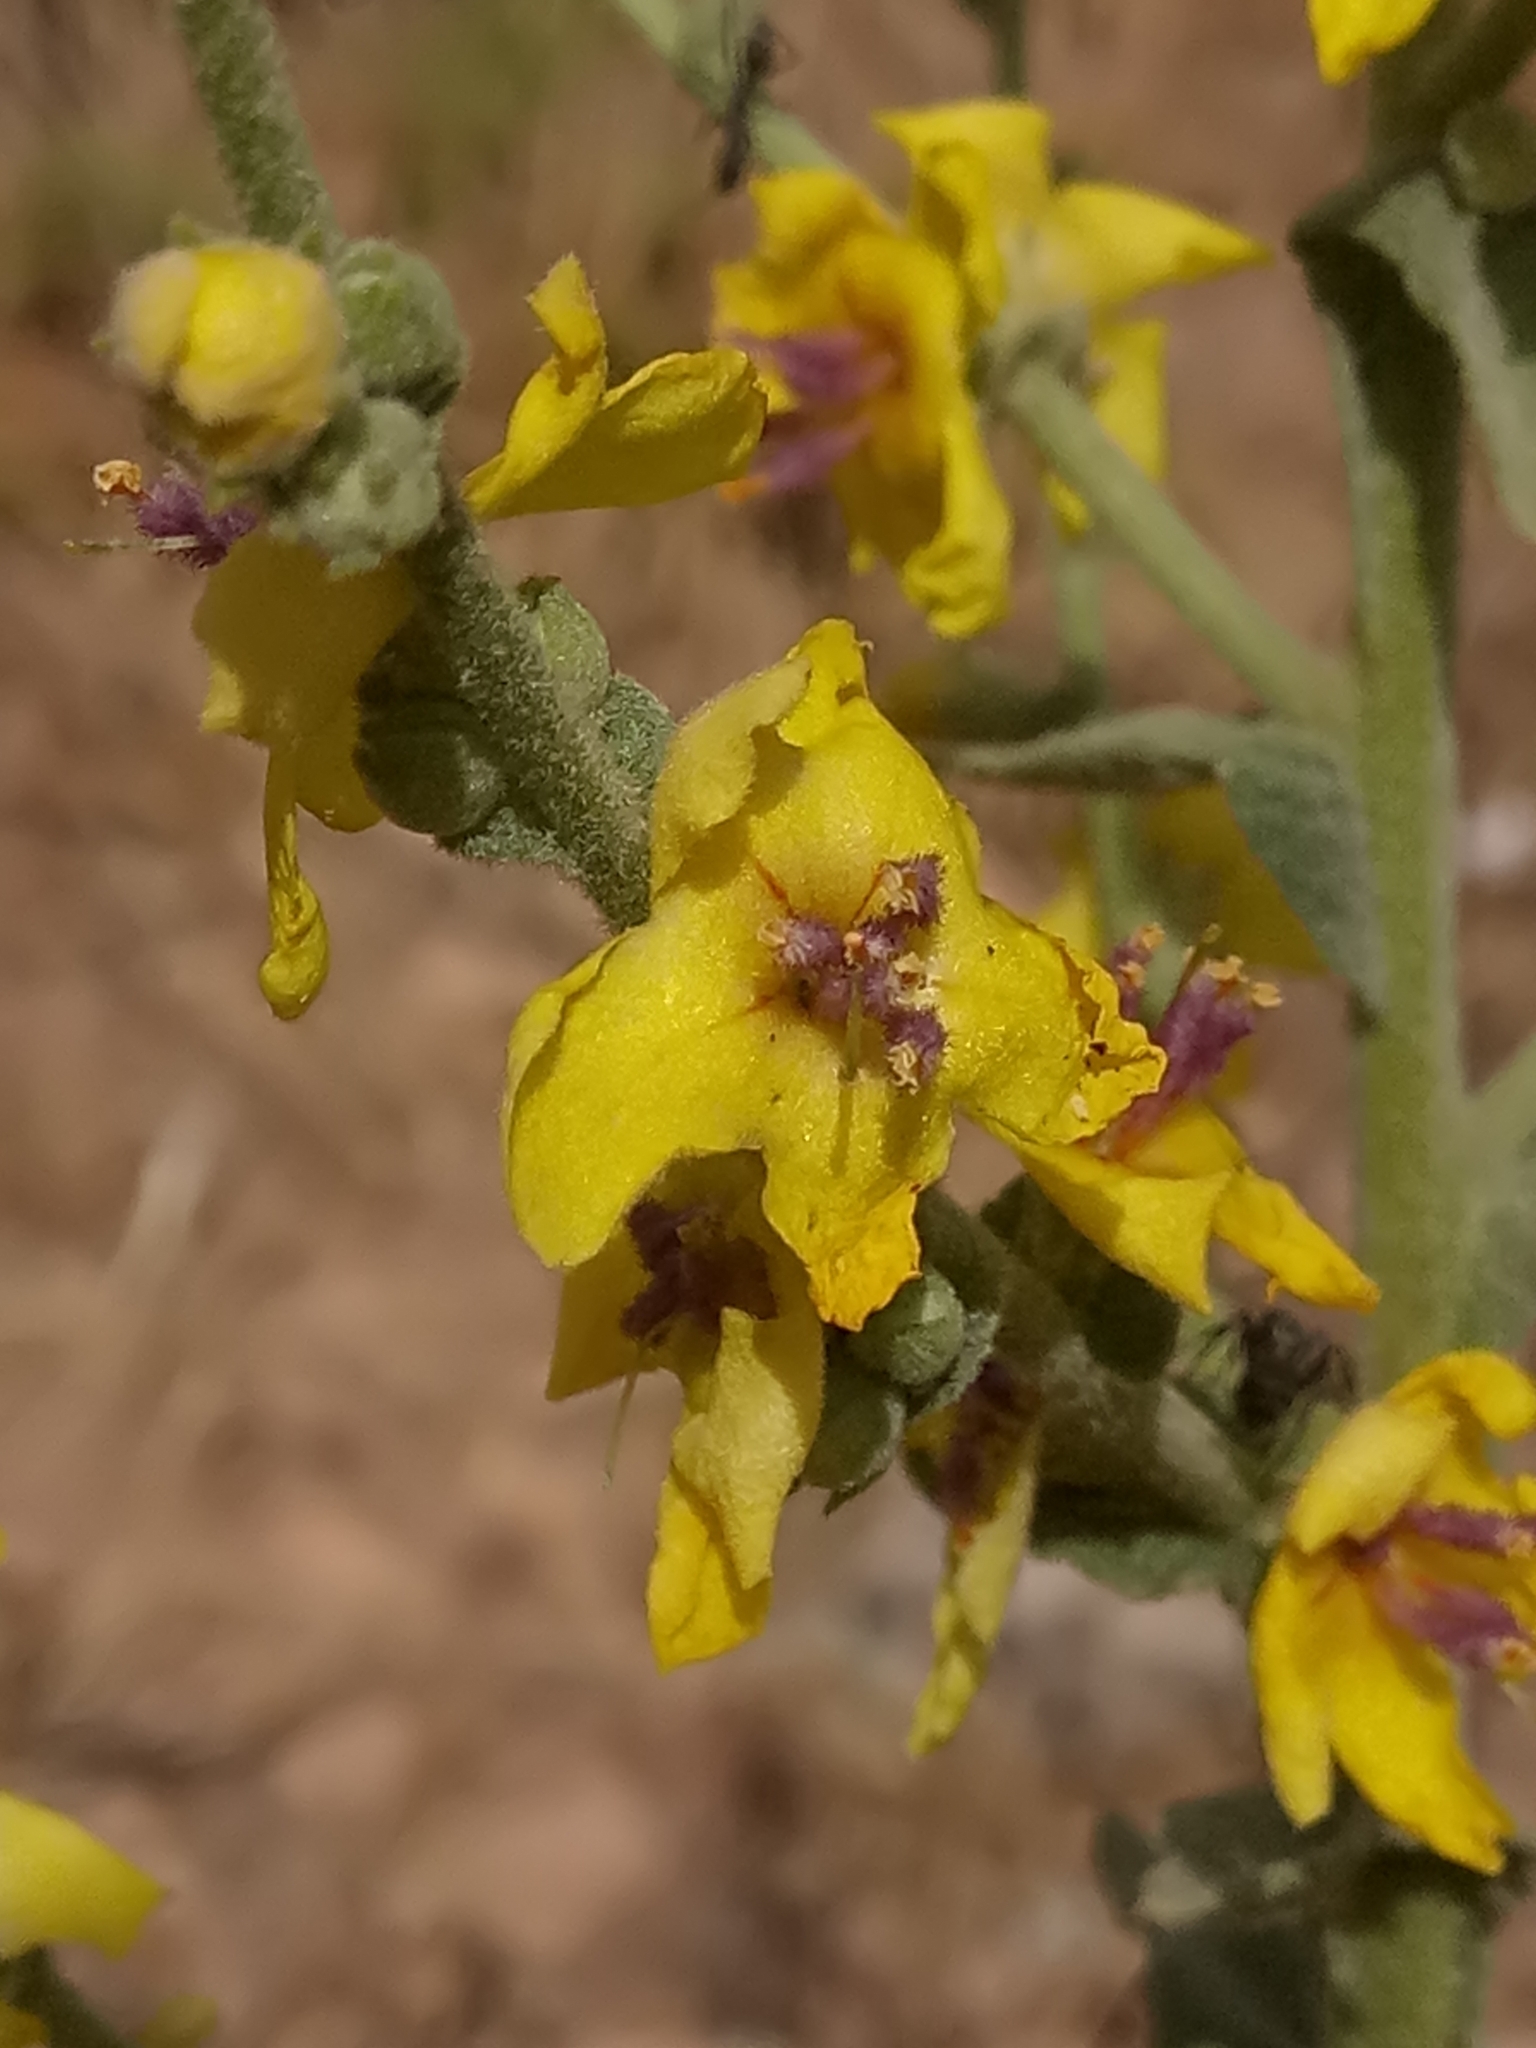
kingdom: Plantae
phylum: Tracheophyta
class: Magnoliopsida
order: Lamiales
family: Scrophulariaceae
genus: Verbascum
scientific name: Verbascum sinuatum
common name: Wavyleaf mullein
